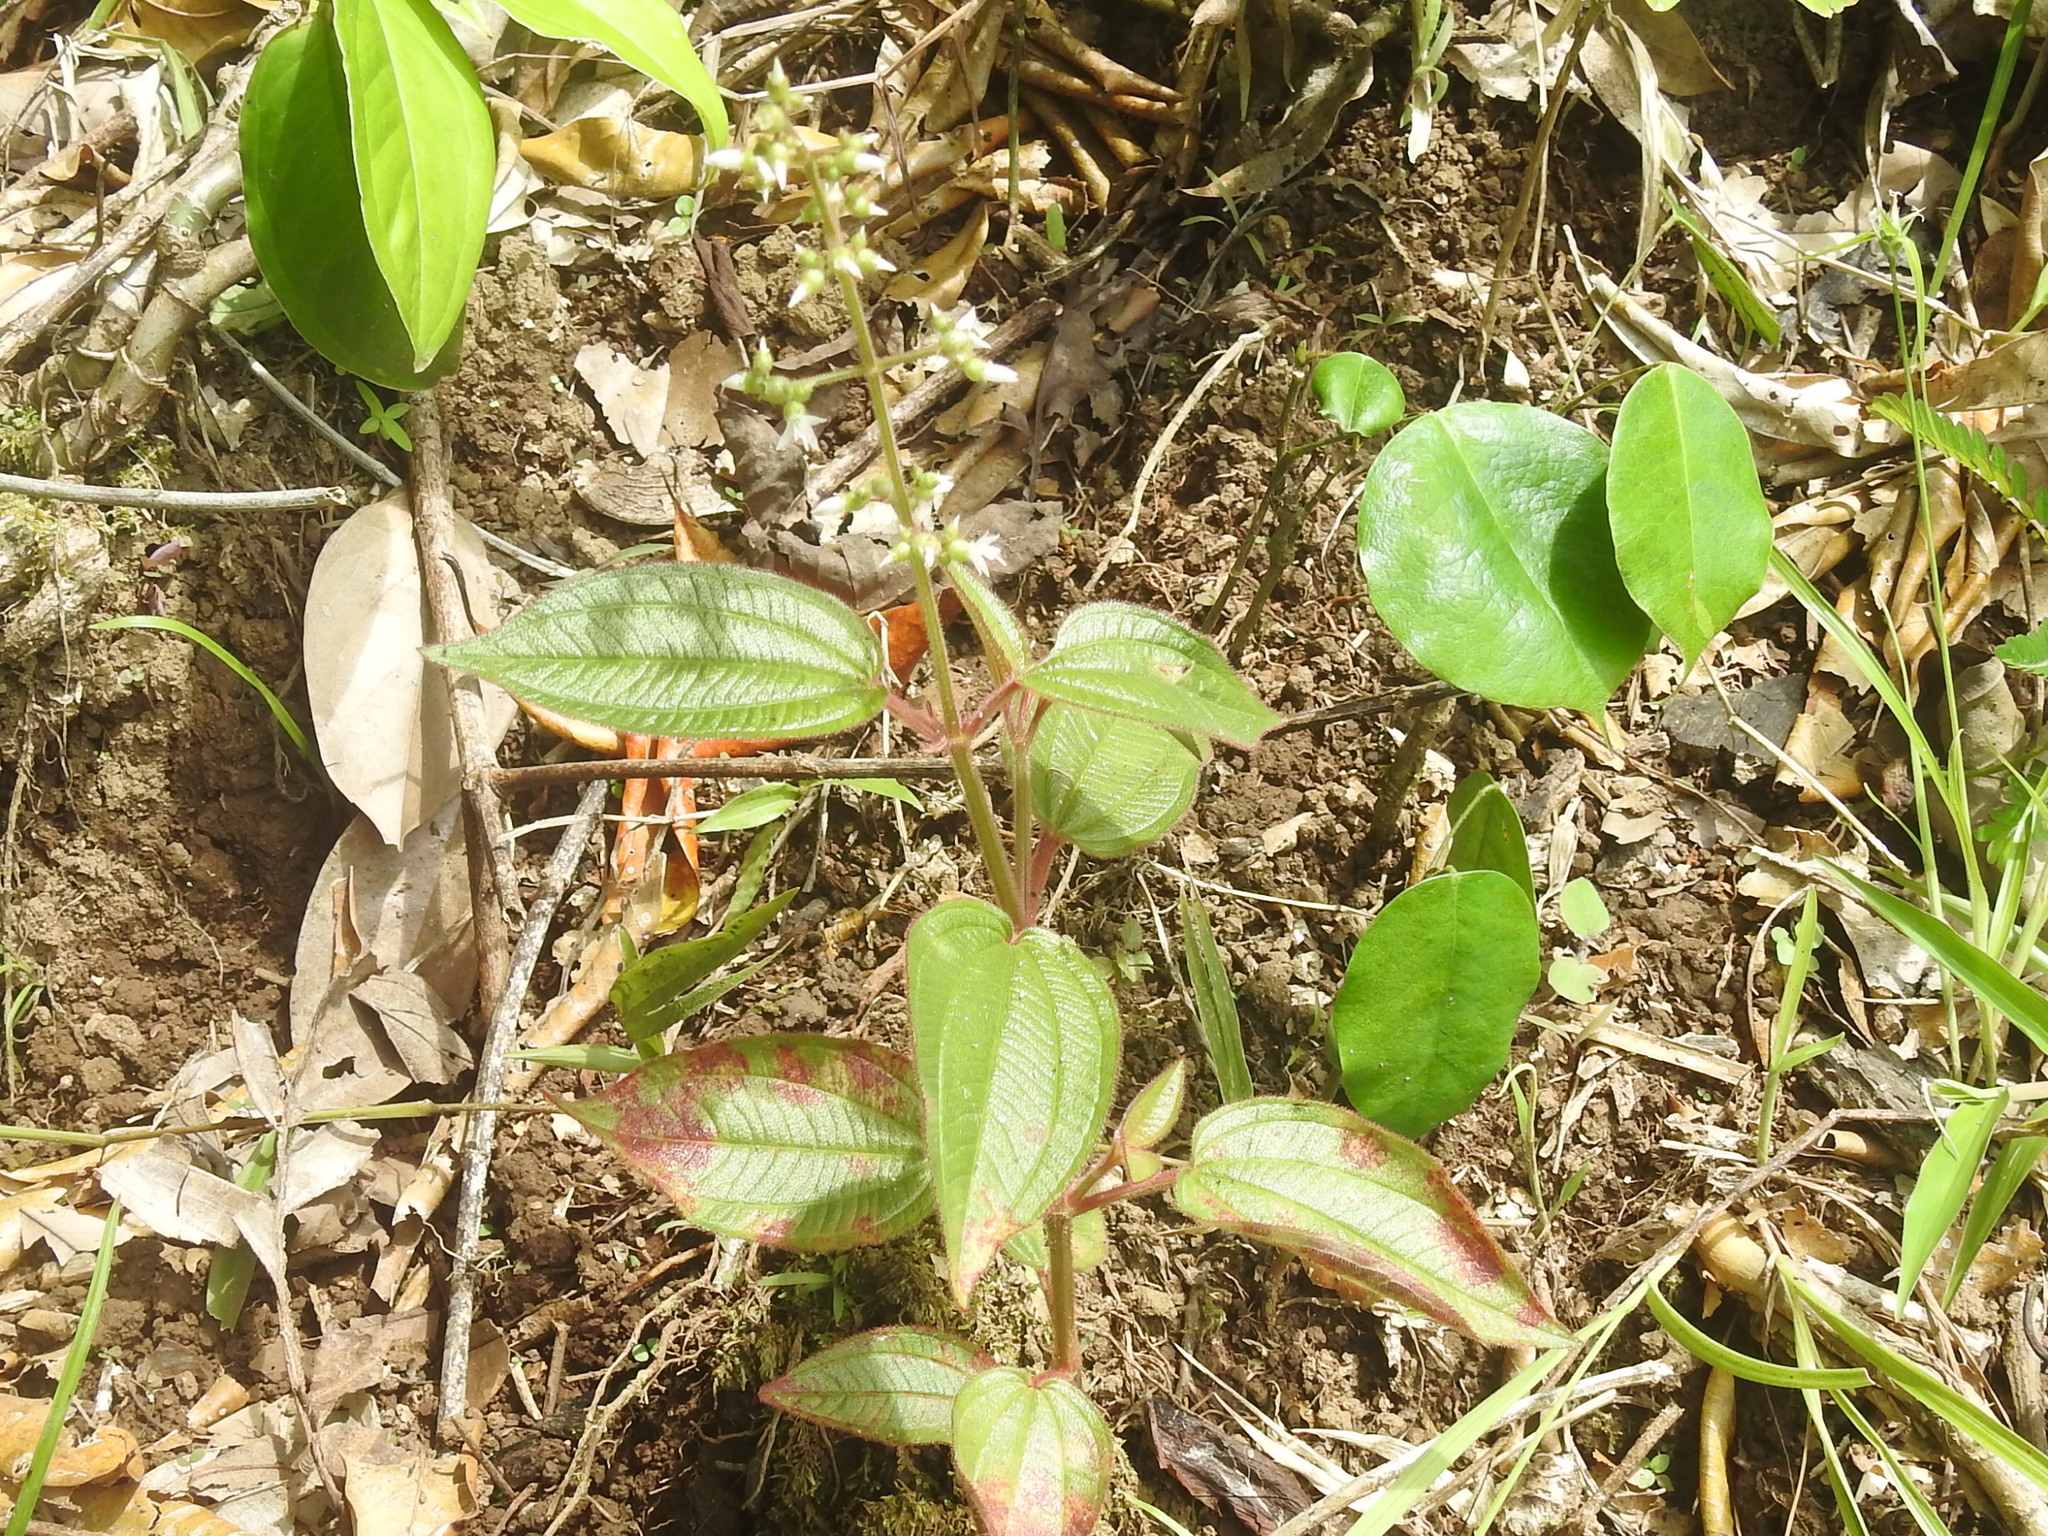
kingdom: Plantae
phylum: Tracheophyta
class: Magnoliopsida
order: Myrtales
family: Melastomataceae
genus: Aciotis
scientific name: Aciotis indecora
